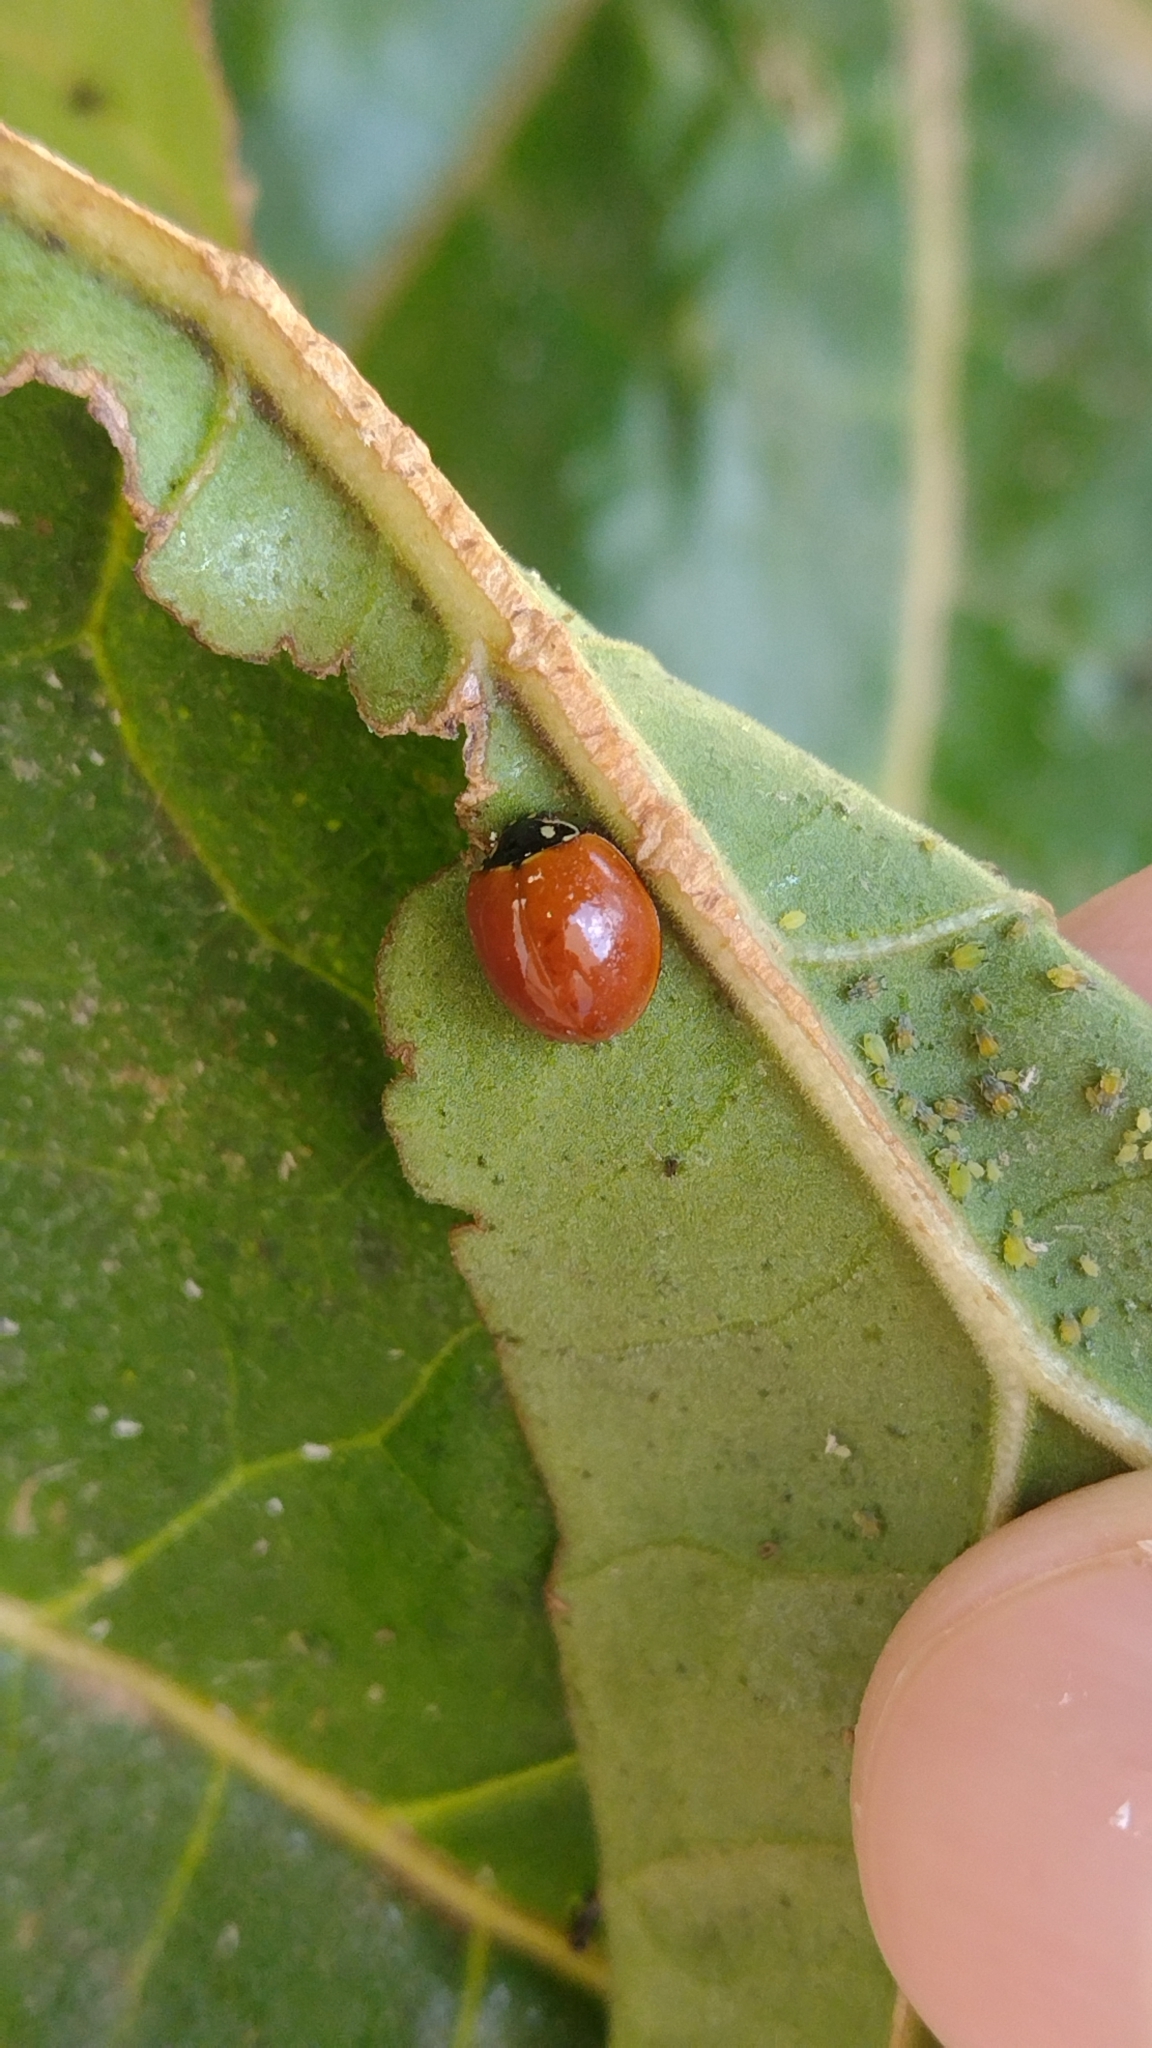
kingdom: Animalia
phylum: Arthropoda
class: Insecta
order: Coleoptera
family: Coccinellidae
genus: Cycloneda
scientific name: Cycloneda sanguinea
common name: Ladybird beetle
